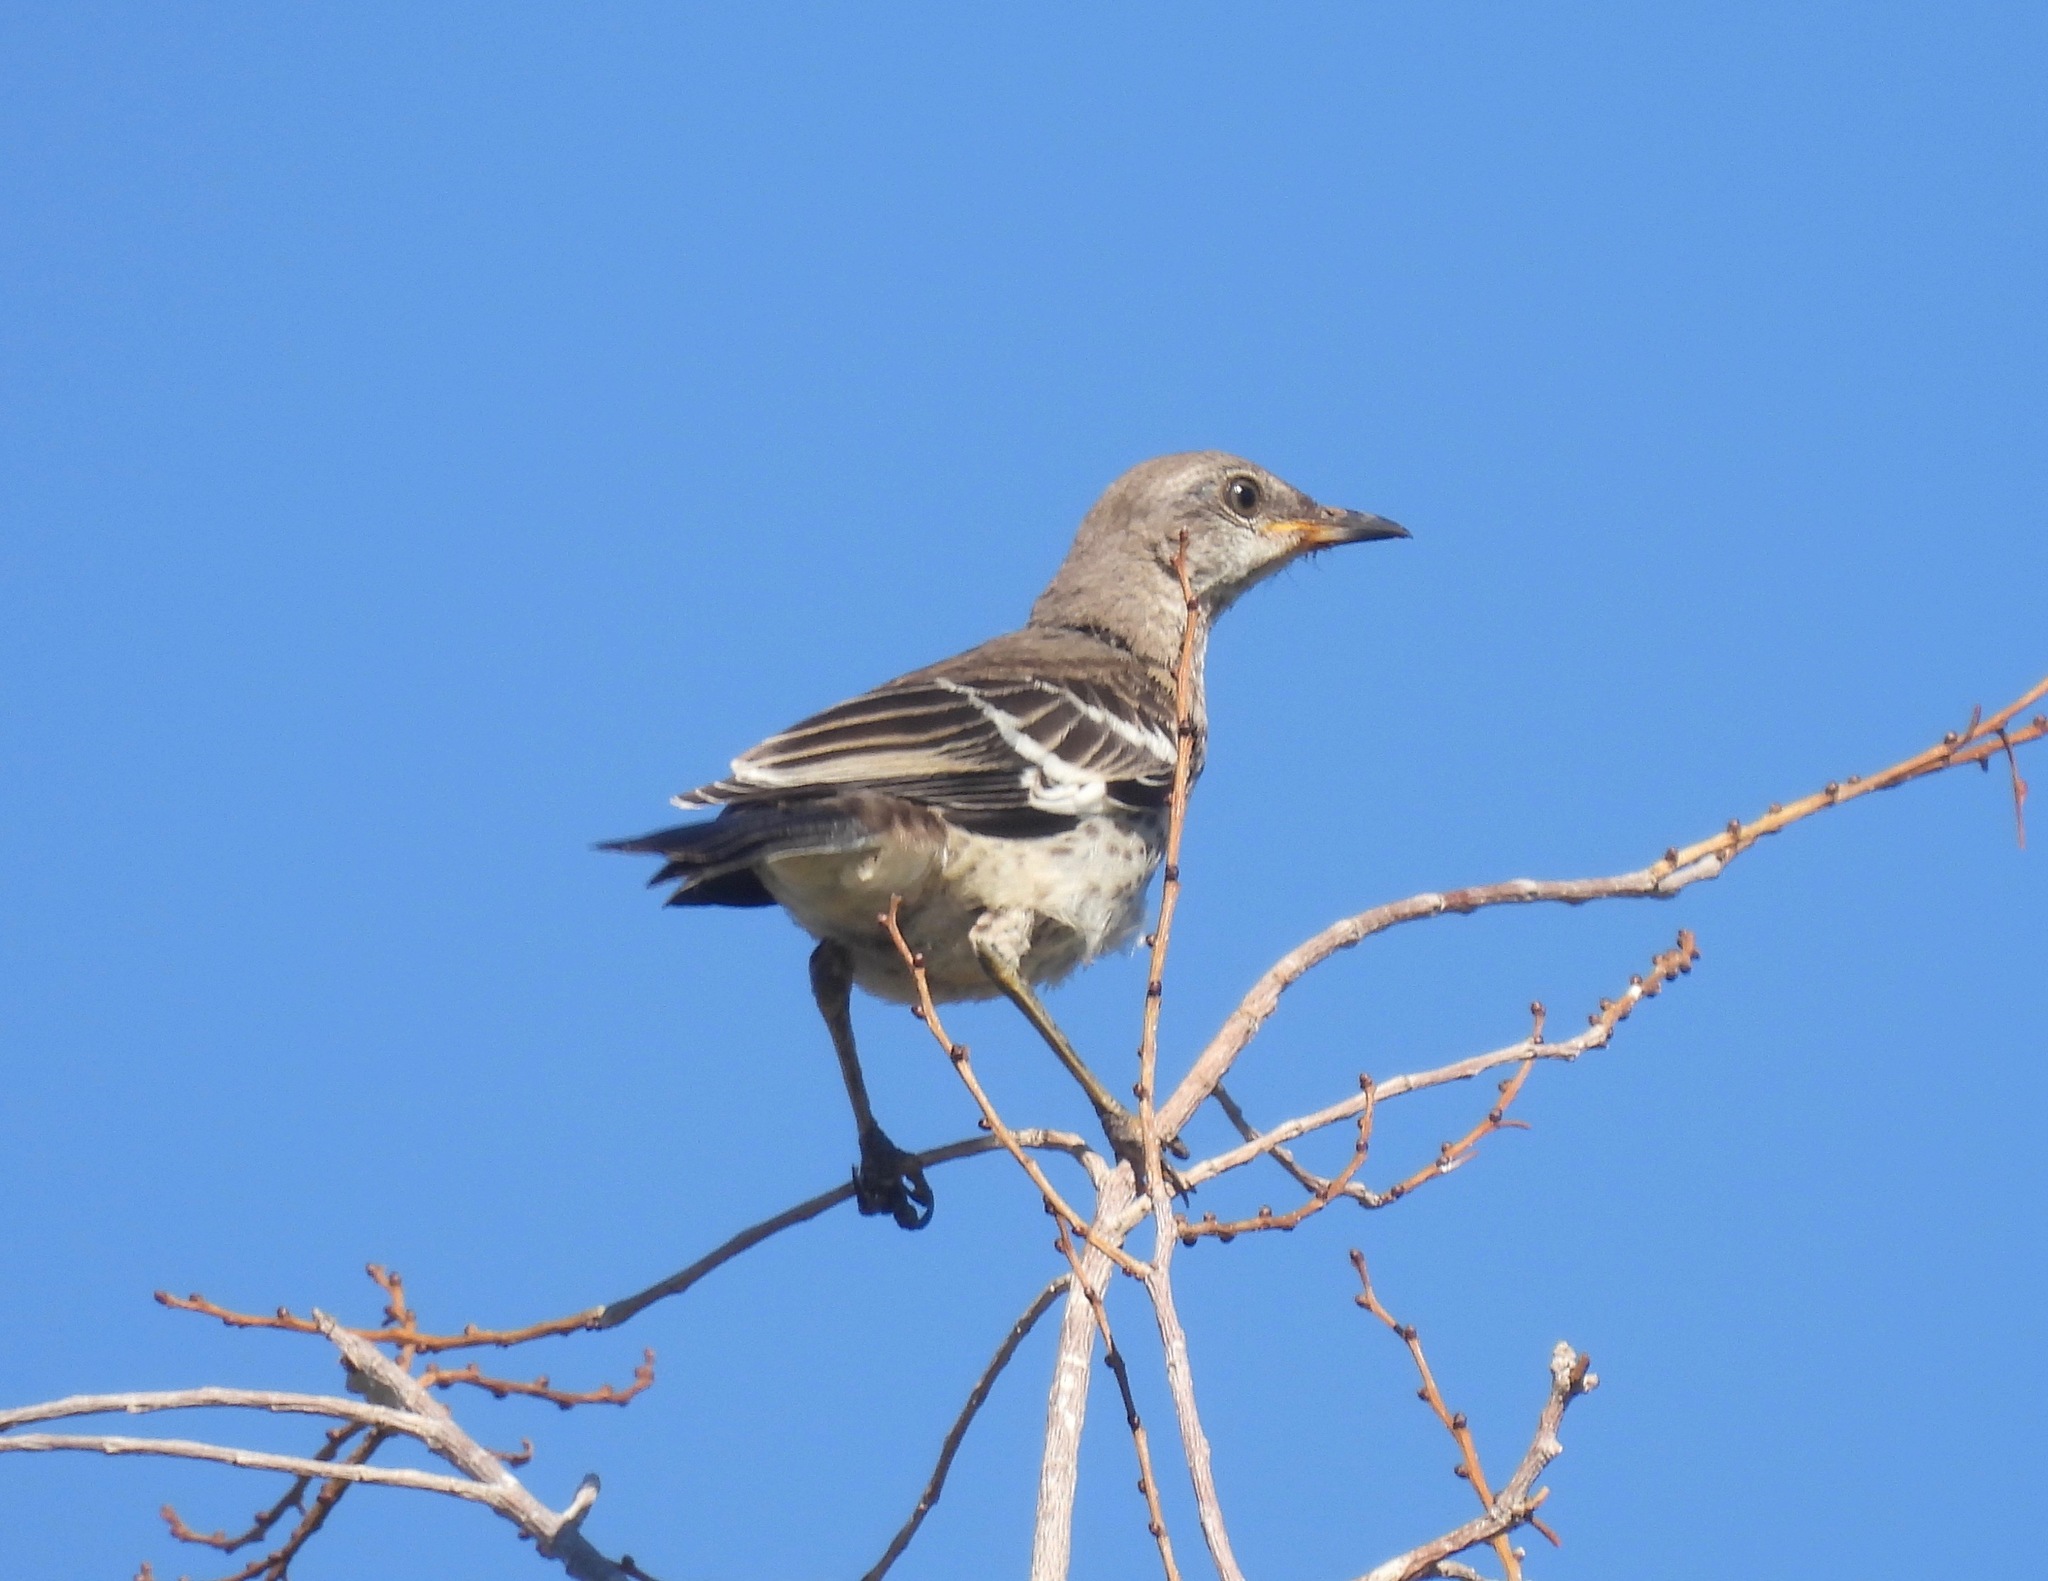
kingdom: Animalia
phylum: Chordata
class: Aves
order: Passeriformes
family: Mimidae
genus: Mimus
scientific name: Mimus polyglottos
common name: Northern mockingbird
